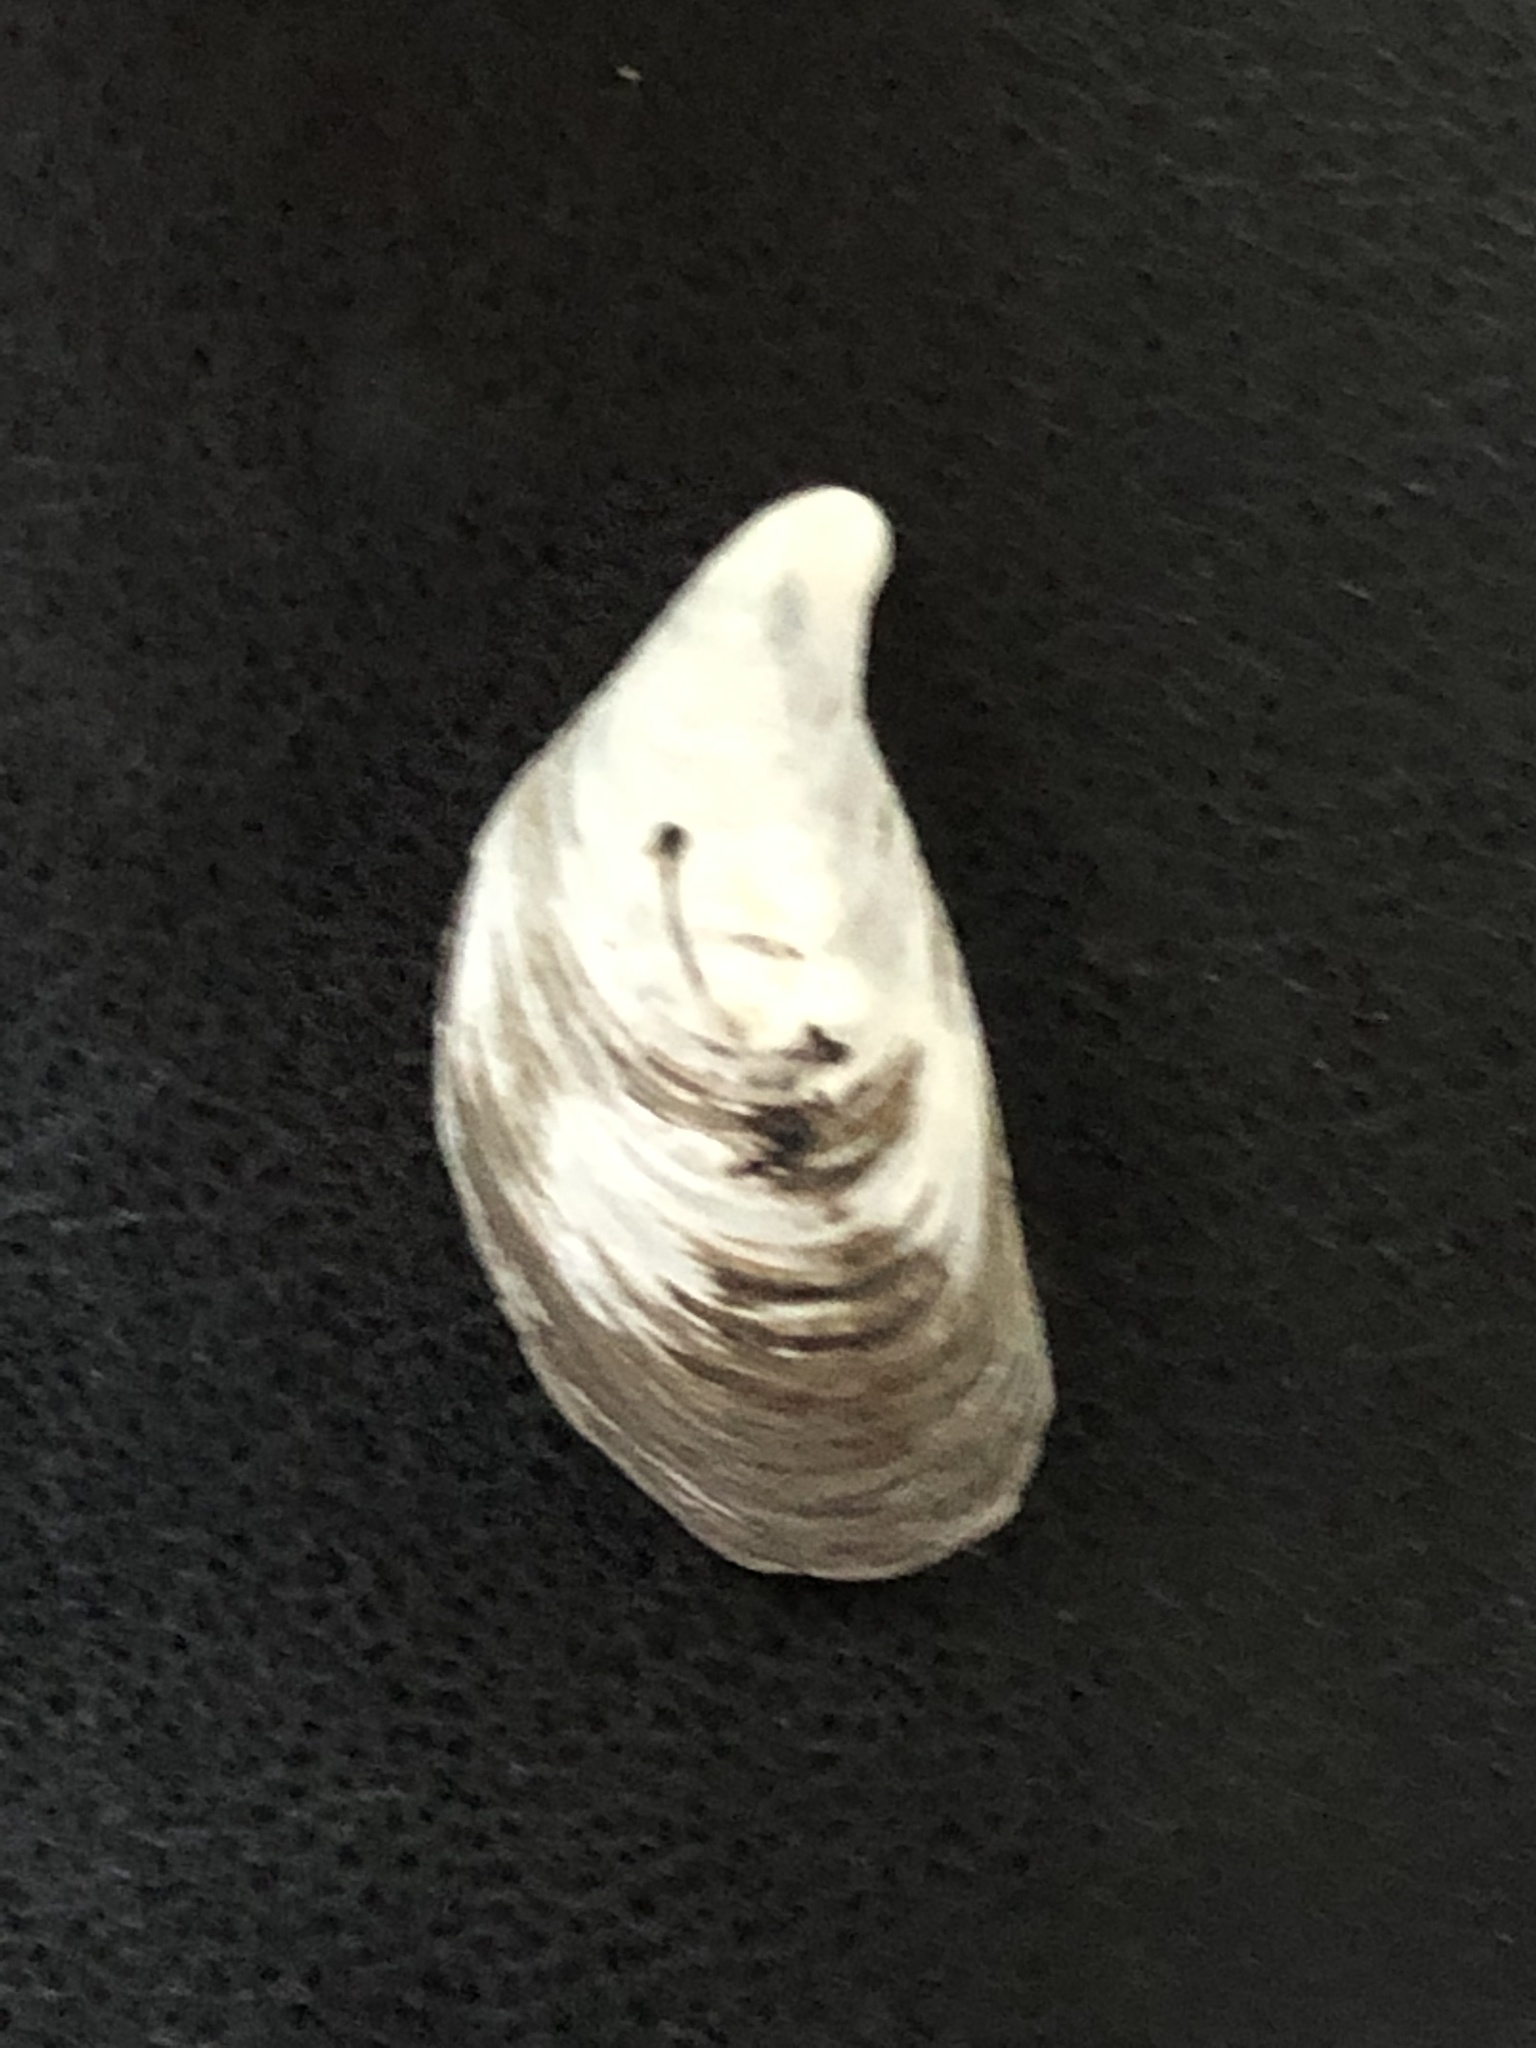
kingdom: Animalia
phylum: Mollusca
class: Bivalvia
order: Myida
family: Dreissenidae
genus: Dreissena
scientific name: Dreissena bugensis
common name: Quagga mussel
